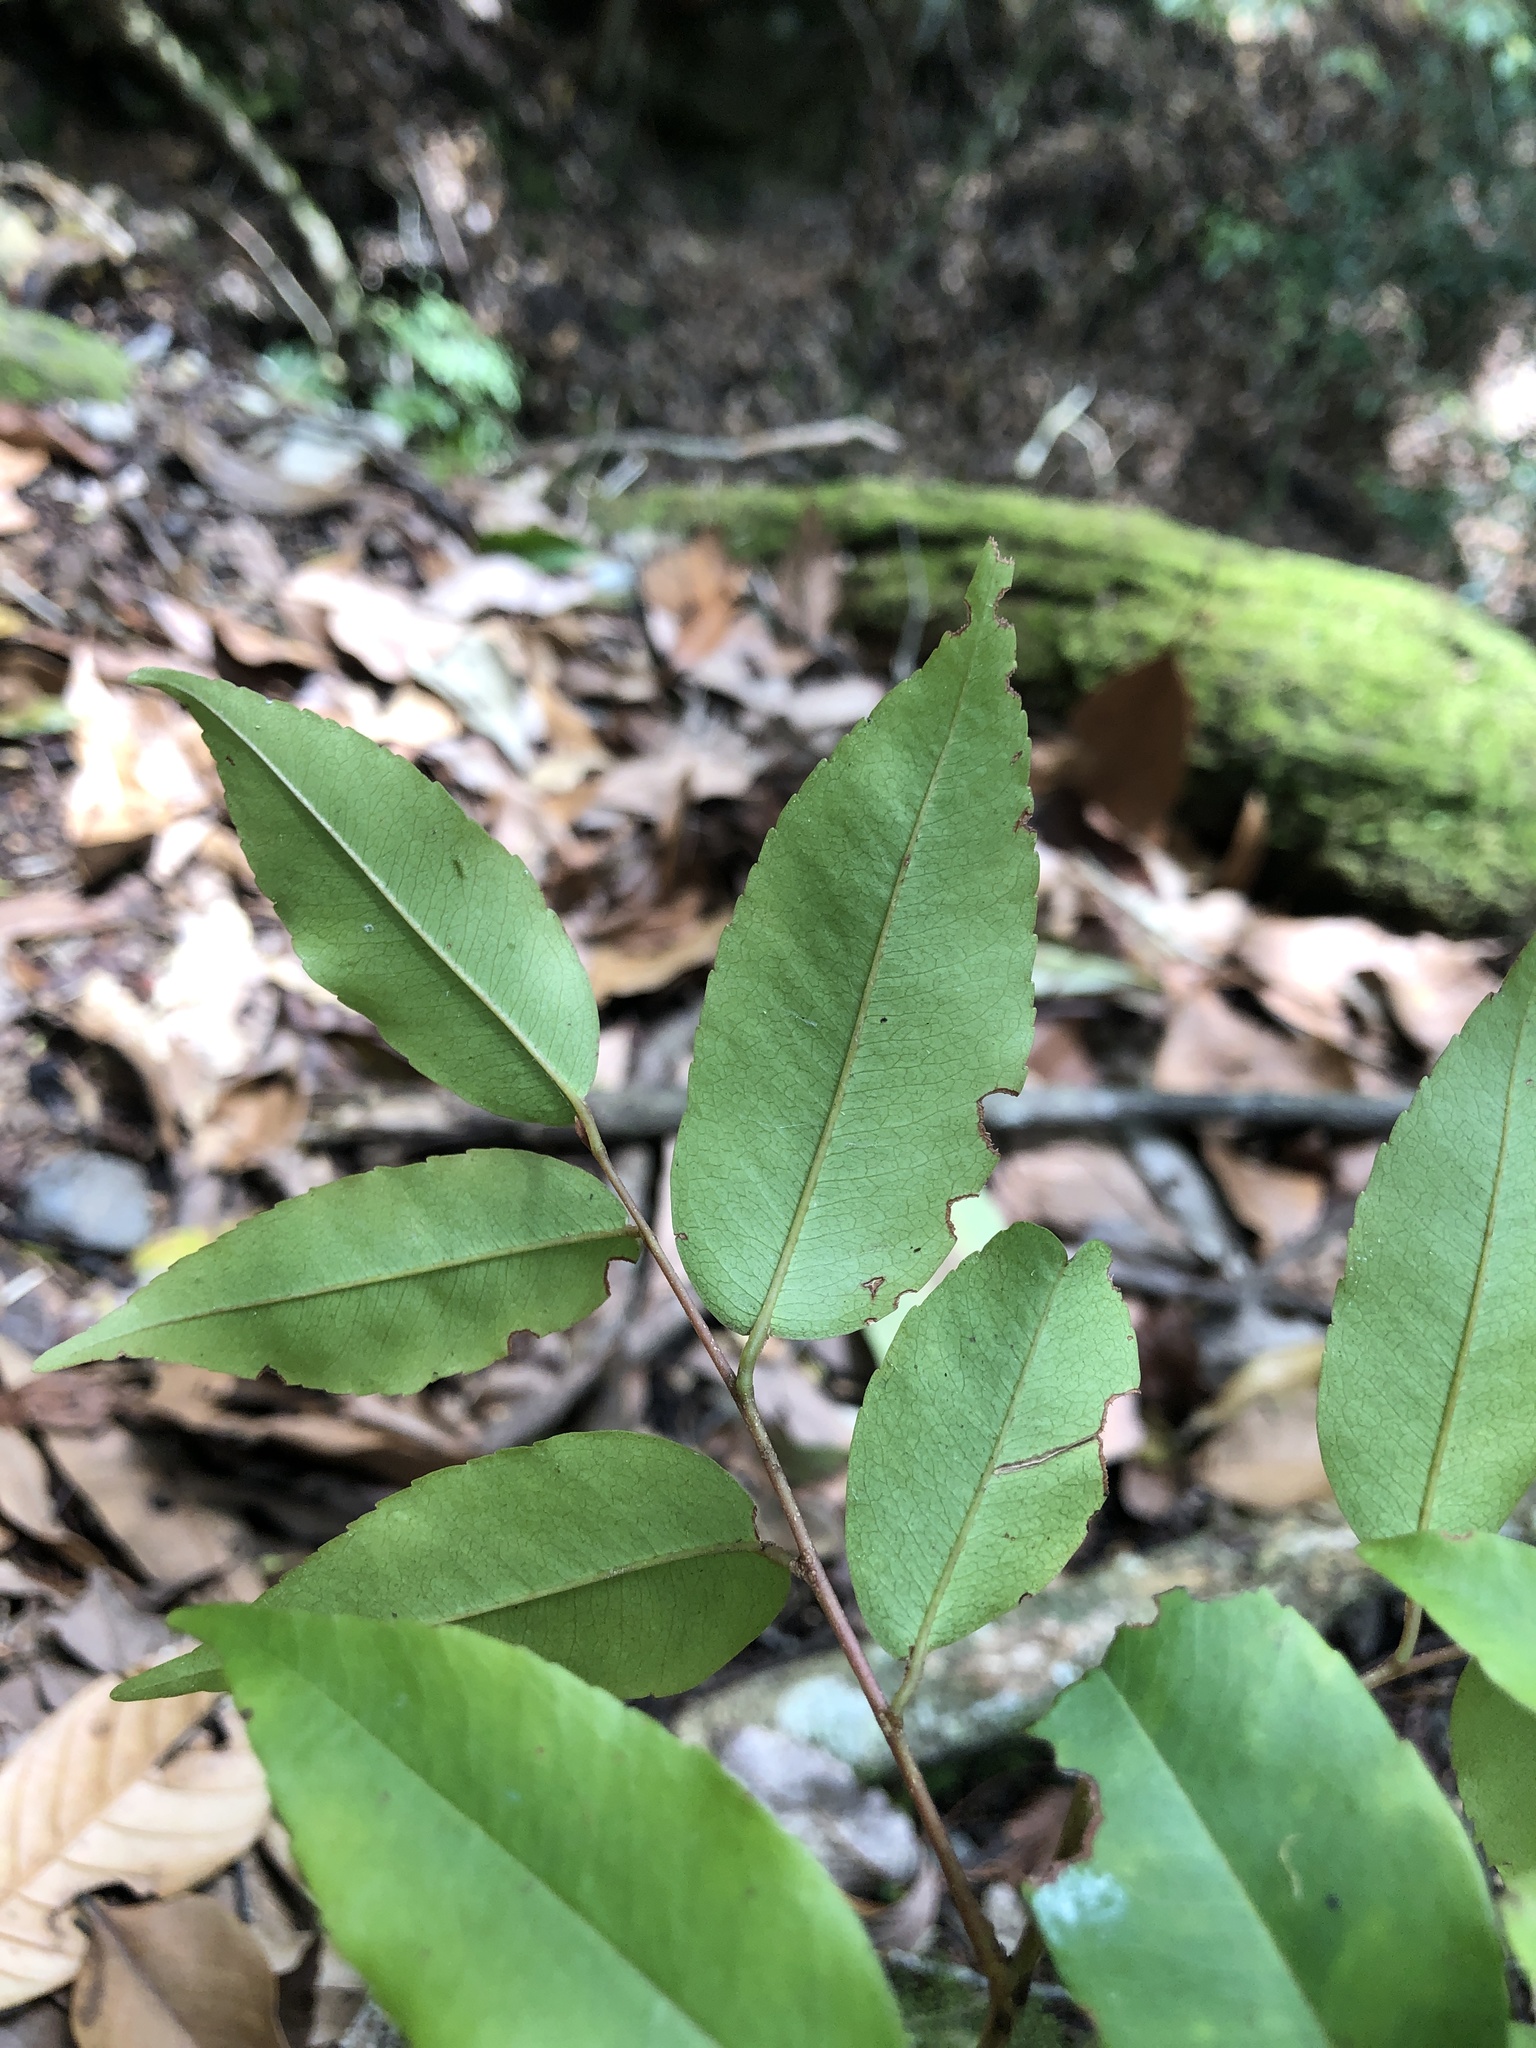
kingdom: Plantae
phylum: Tracheophyta
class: Magnoliopsida
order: Ericales
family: Primulaceae
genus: Embelia
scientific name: Embelia vestita
